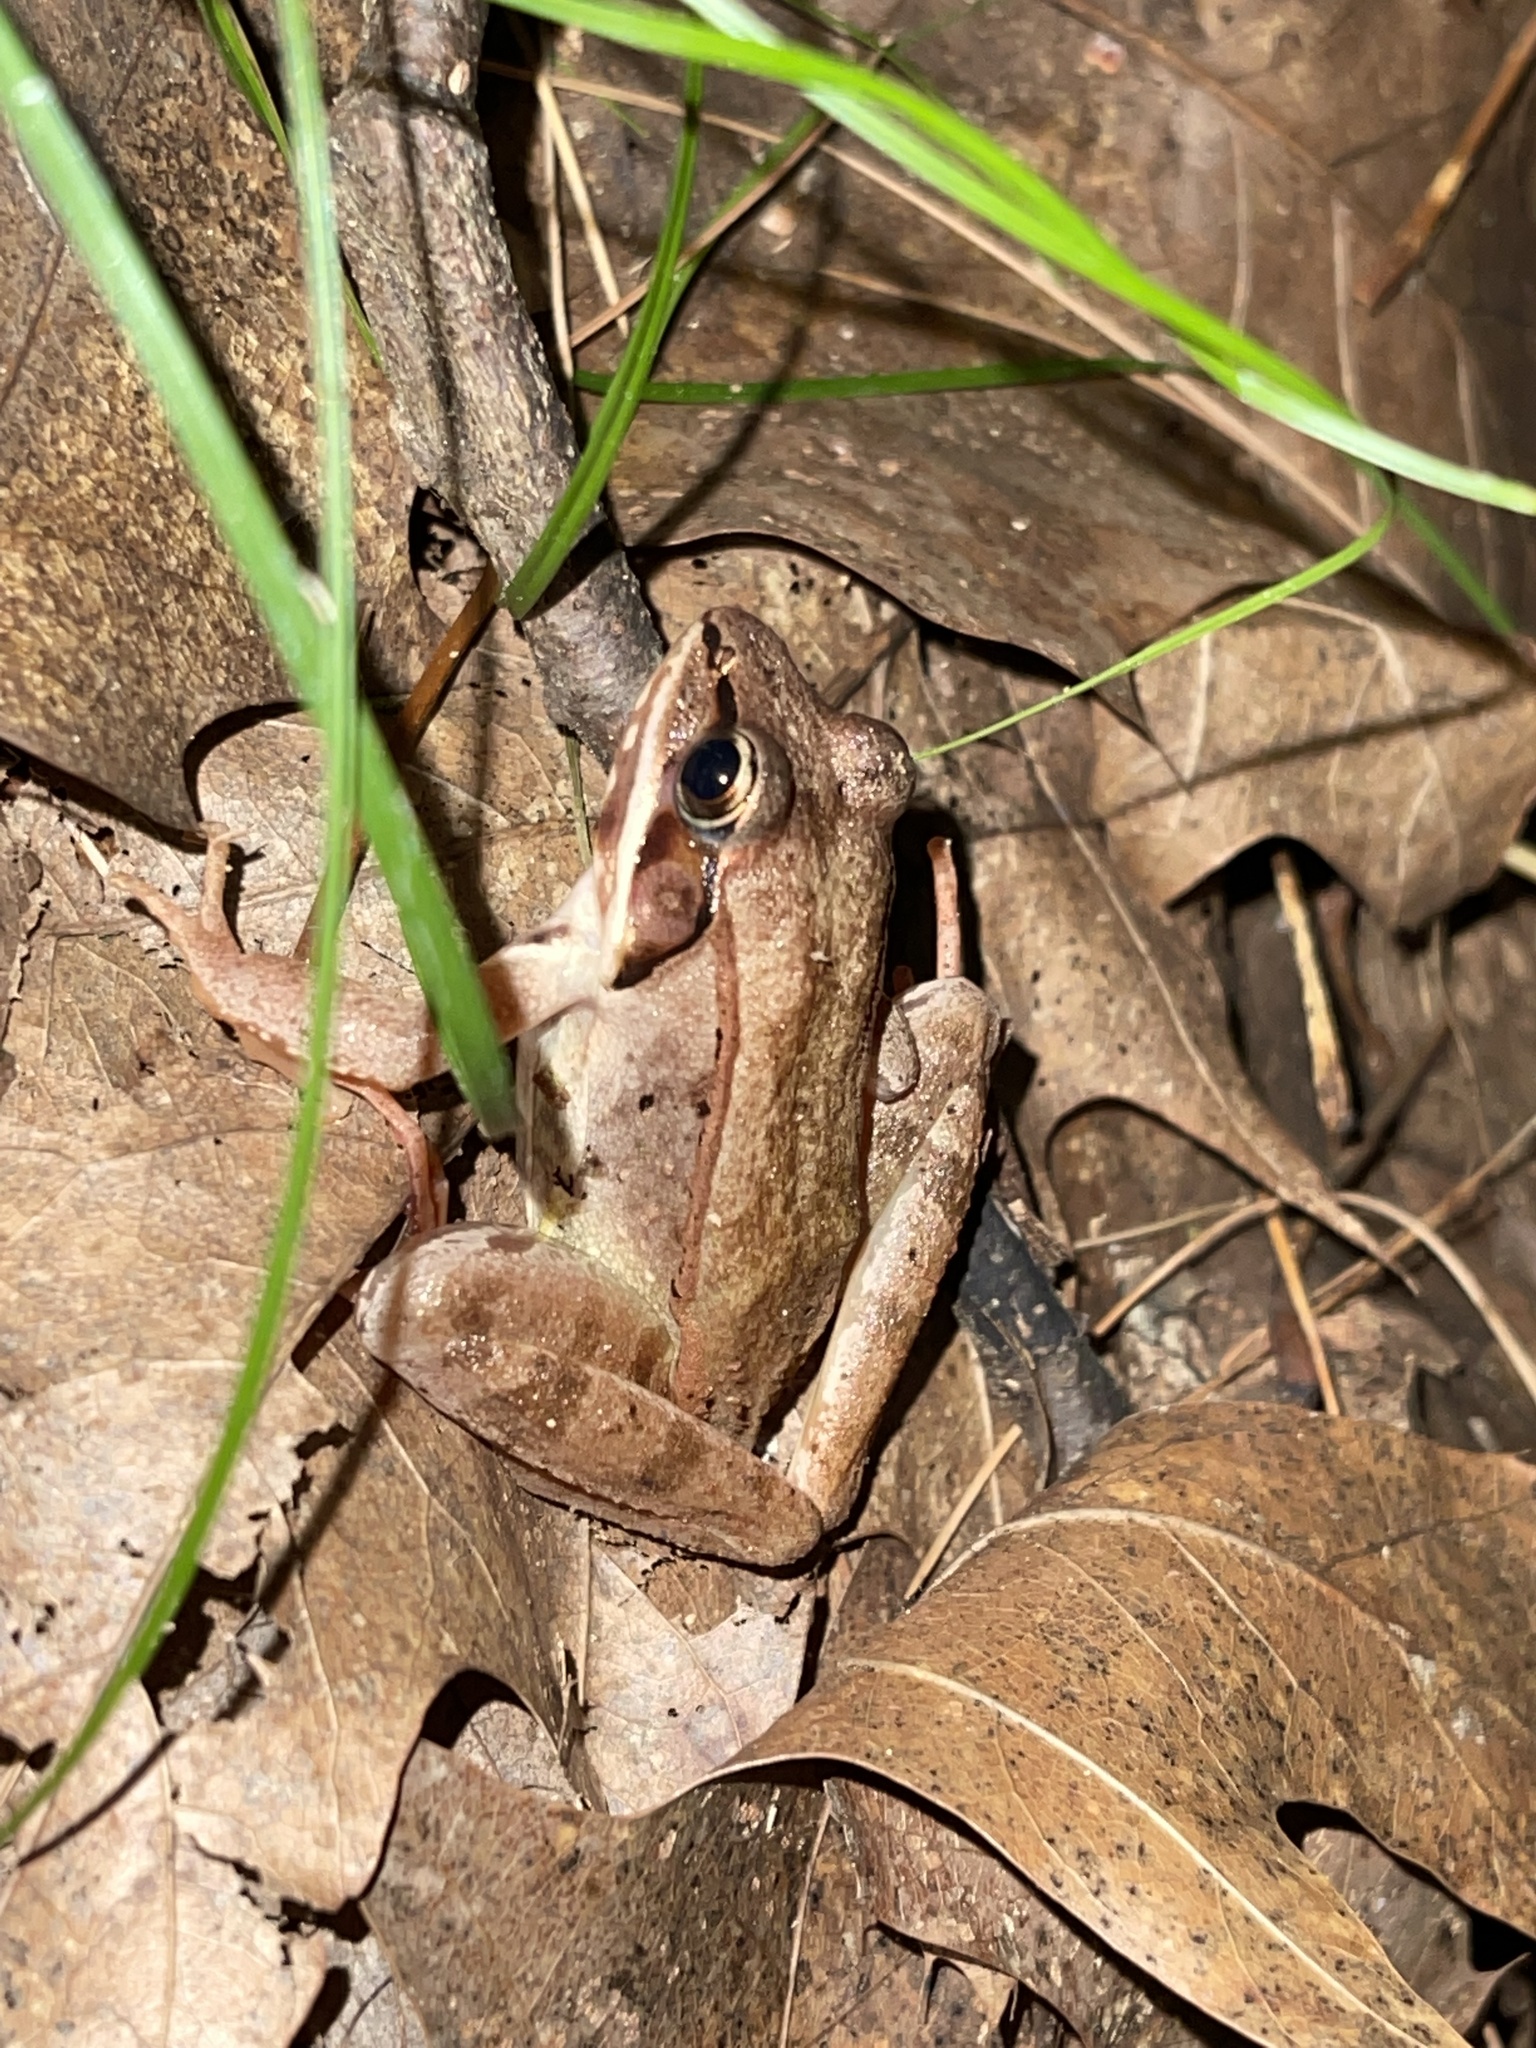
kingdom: Animalia
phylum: Chordata
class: Amphibia
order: Anura
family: Ranidae
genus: Lithobates
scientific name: Lithobates sylvaticus
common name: Wood frog
